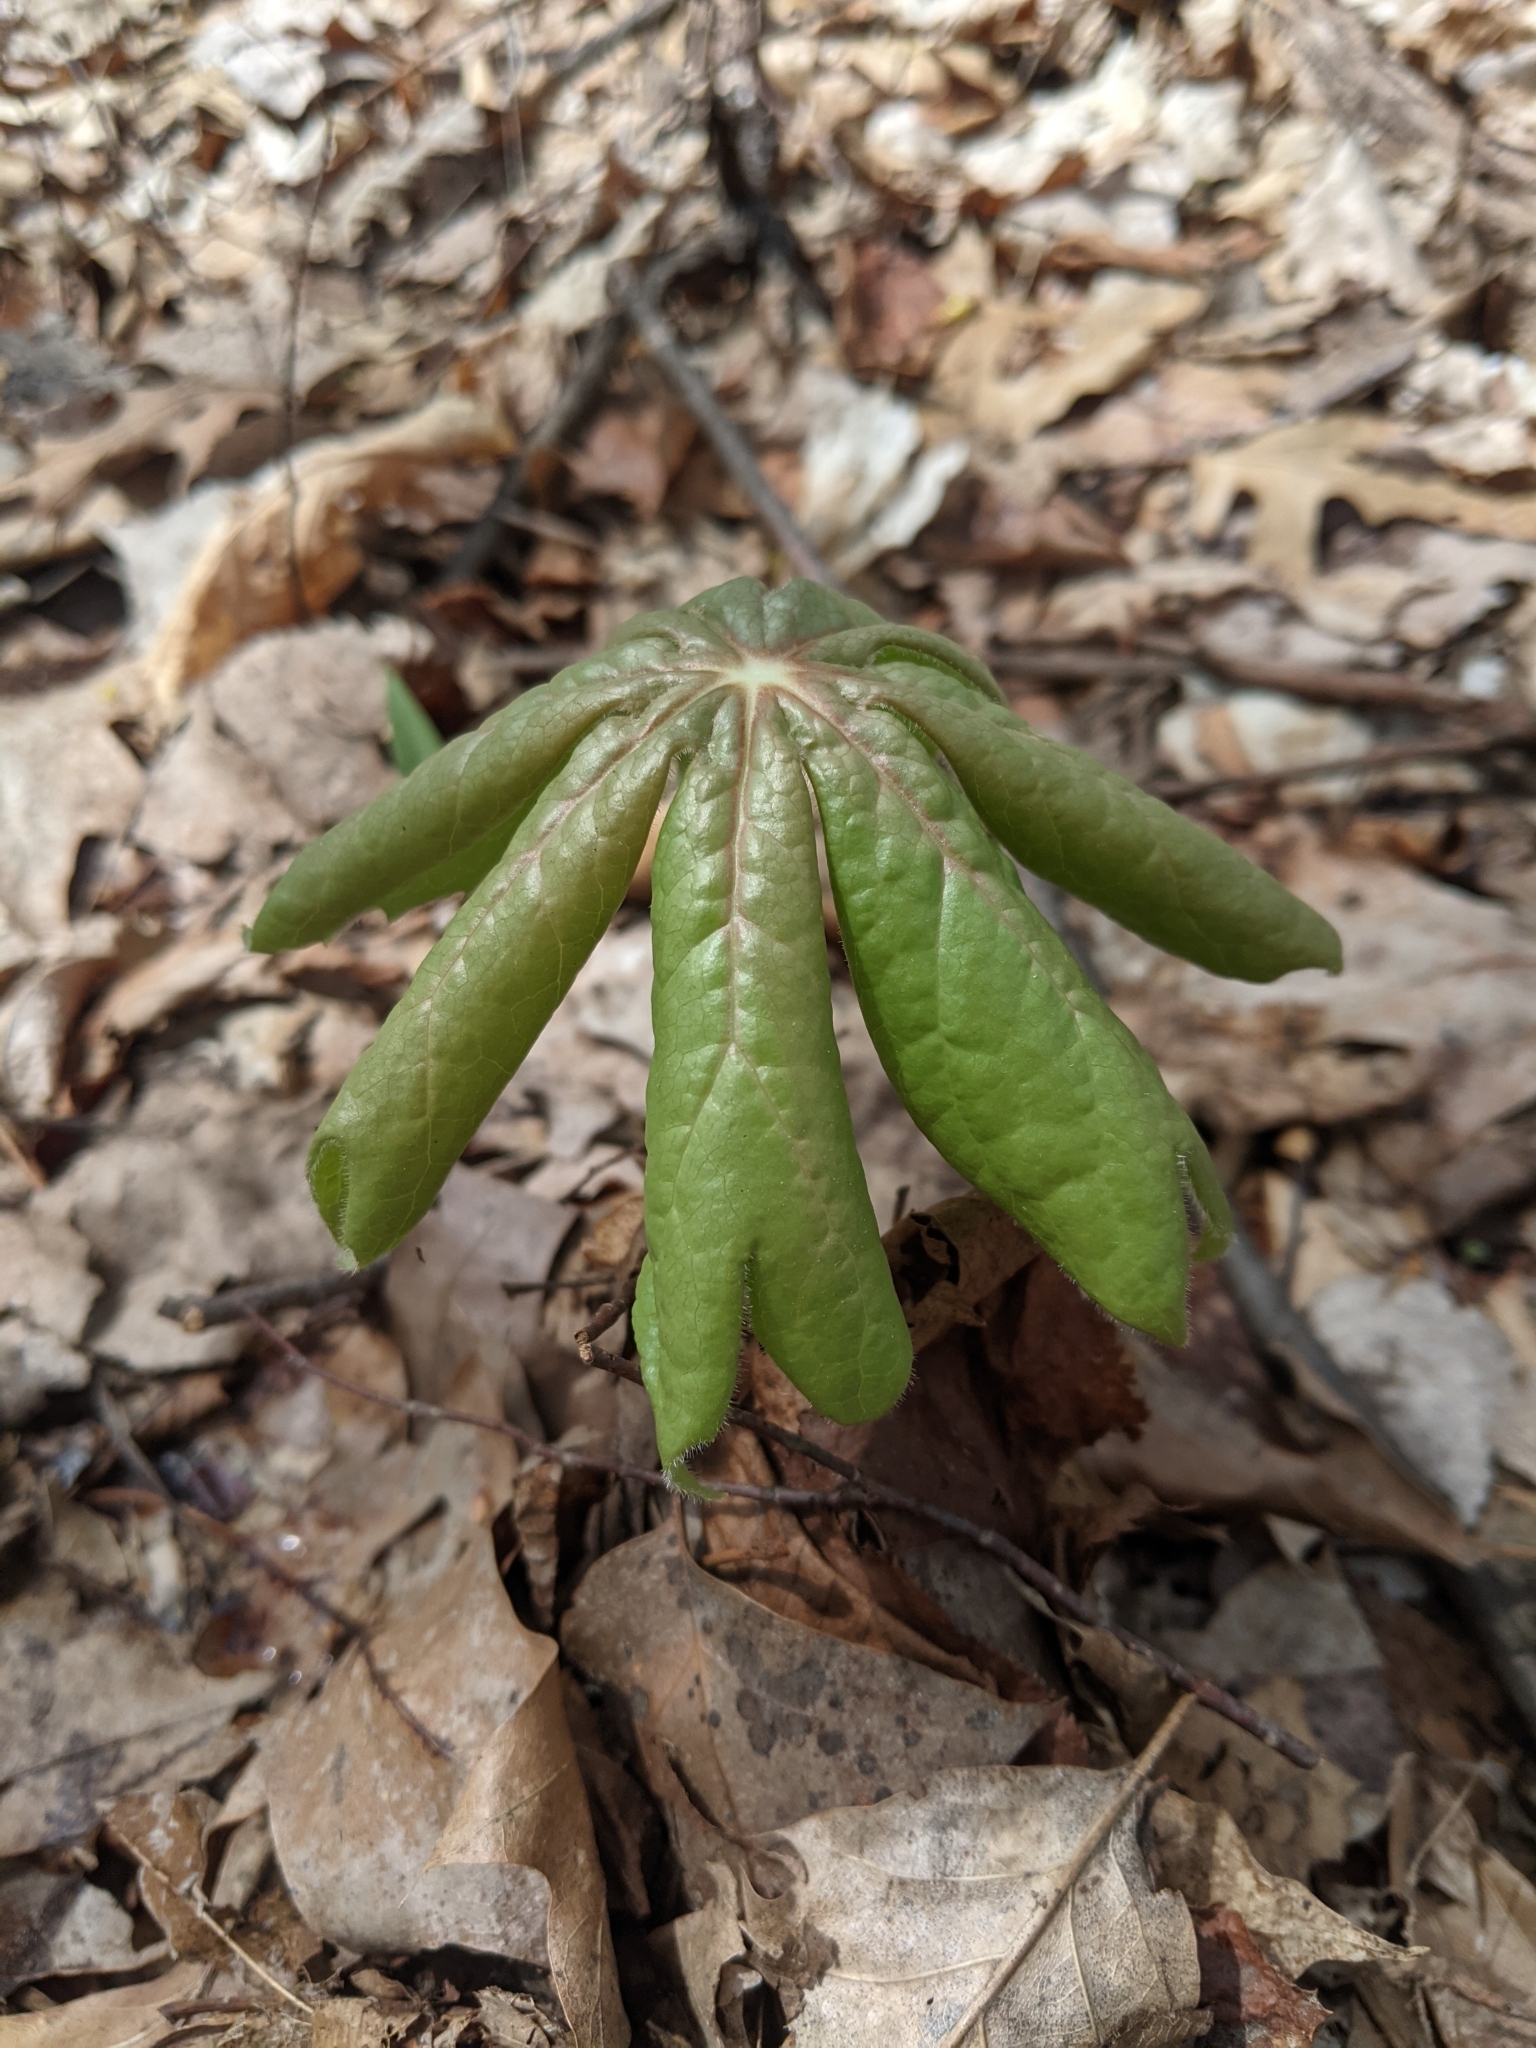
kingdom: Plantae
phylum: Tracheophyta
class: Magnoliopsida
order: Ranunculales
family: Berberidaceae
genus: Podophyllum
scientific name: Podophyllum peltatum
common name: Wild mandrake
